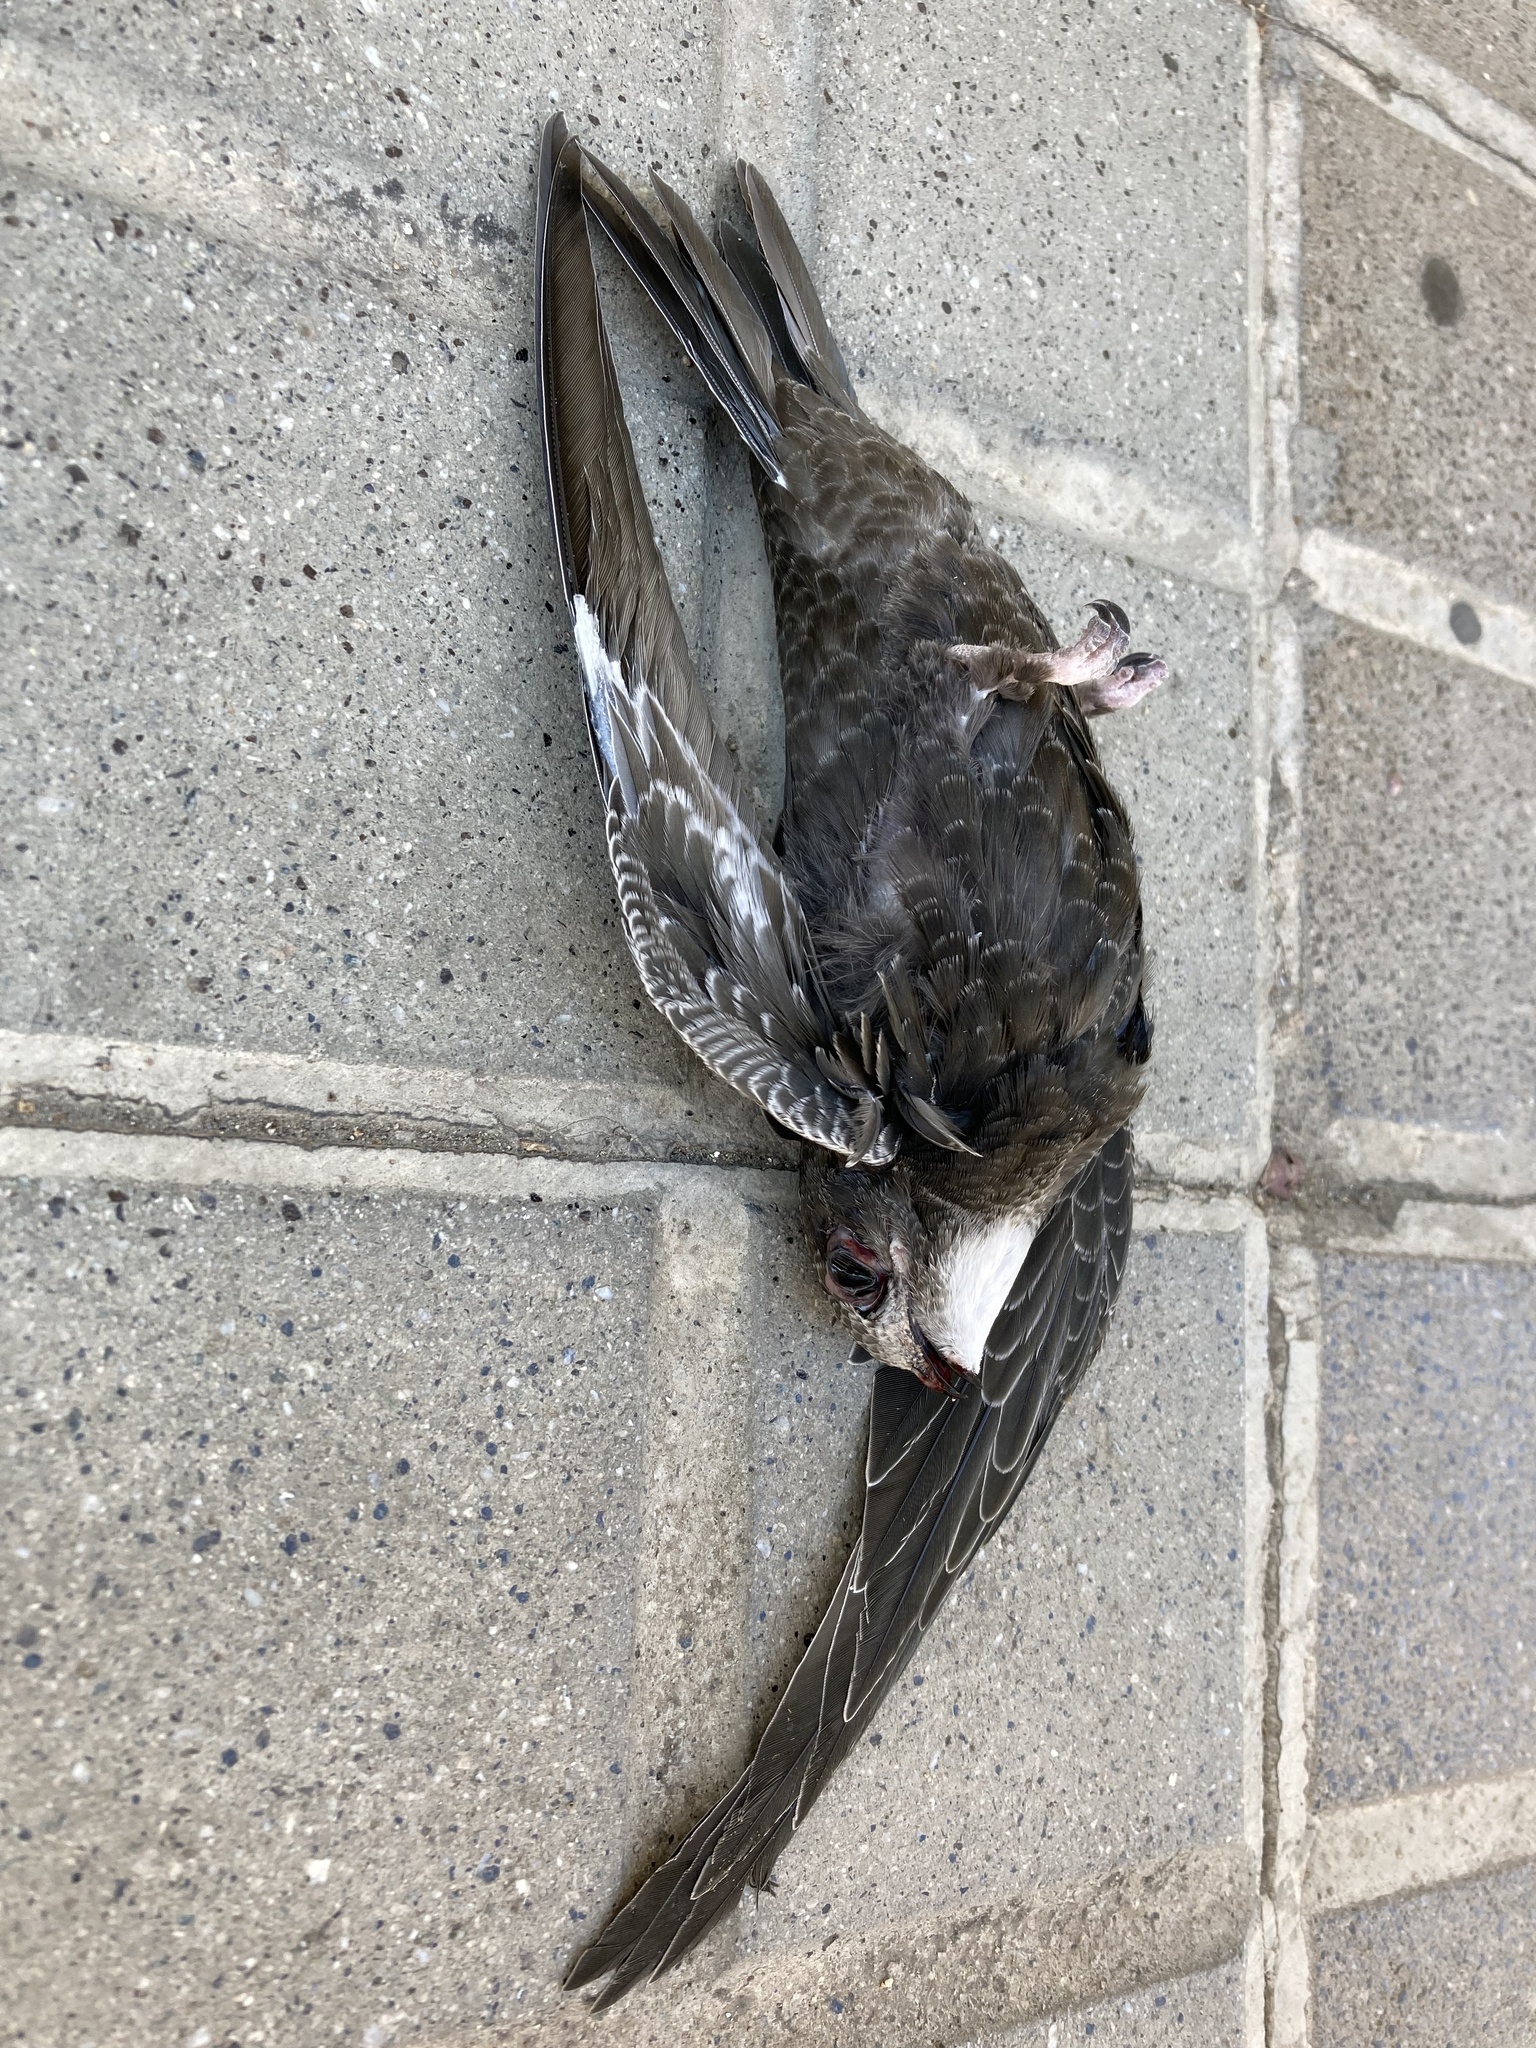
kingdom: Animalia
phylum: Chordata
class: Aves
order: Apodiformes
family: Apodidae
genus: Apus
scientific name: Apus apus
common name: Common swift
